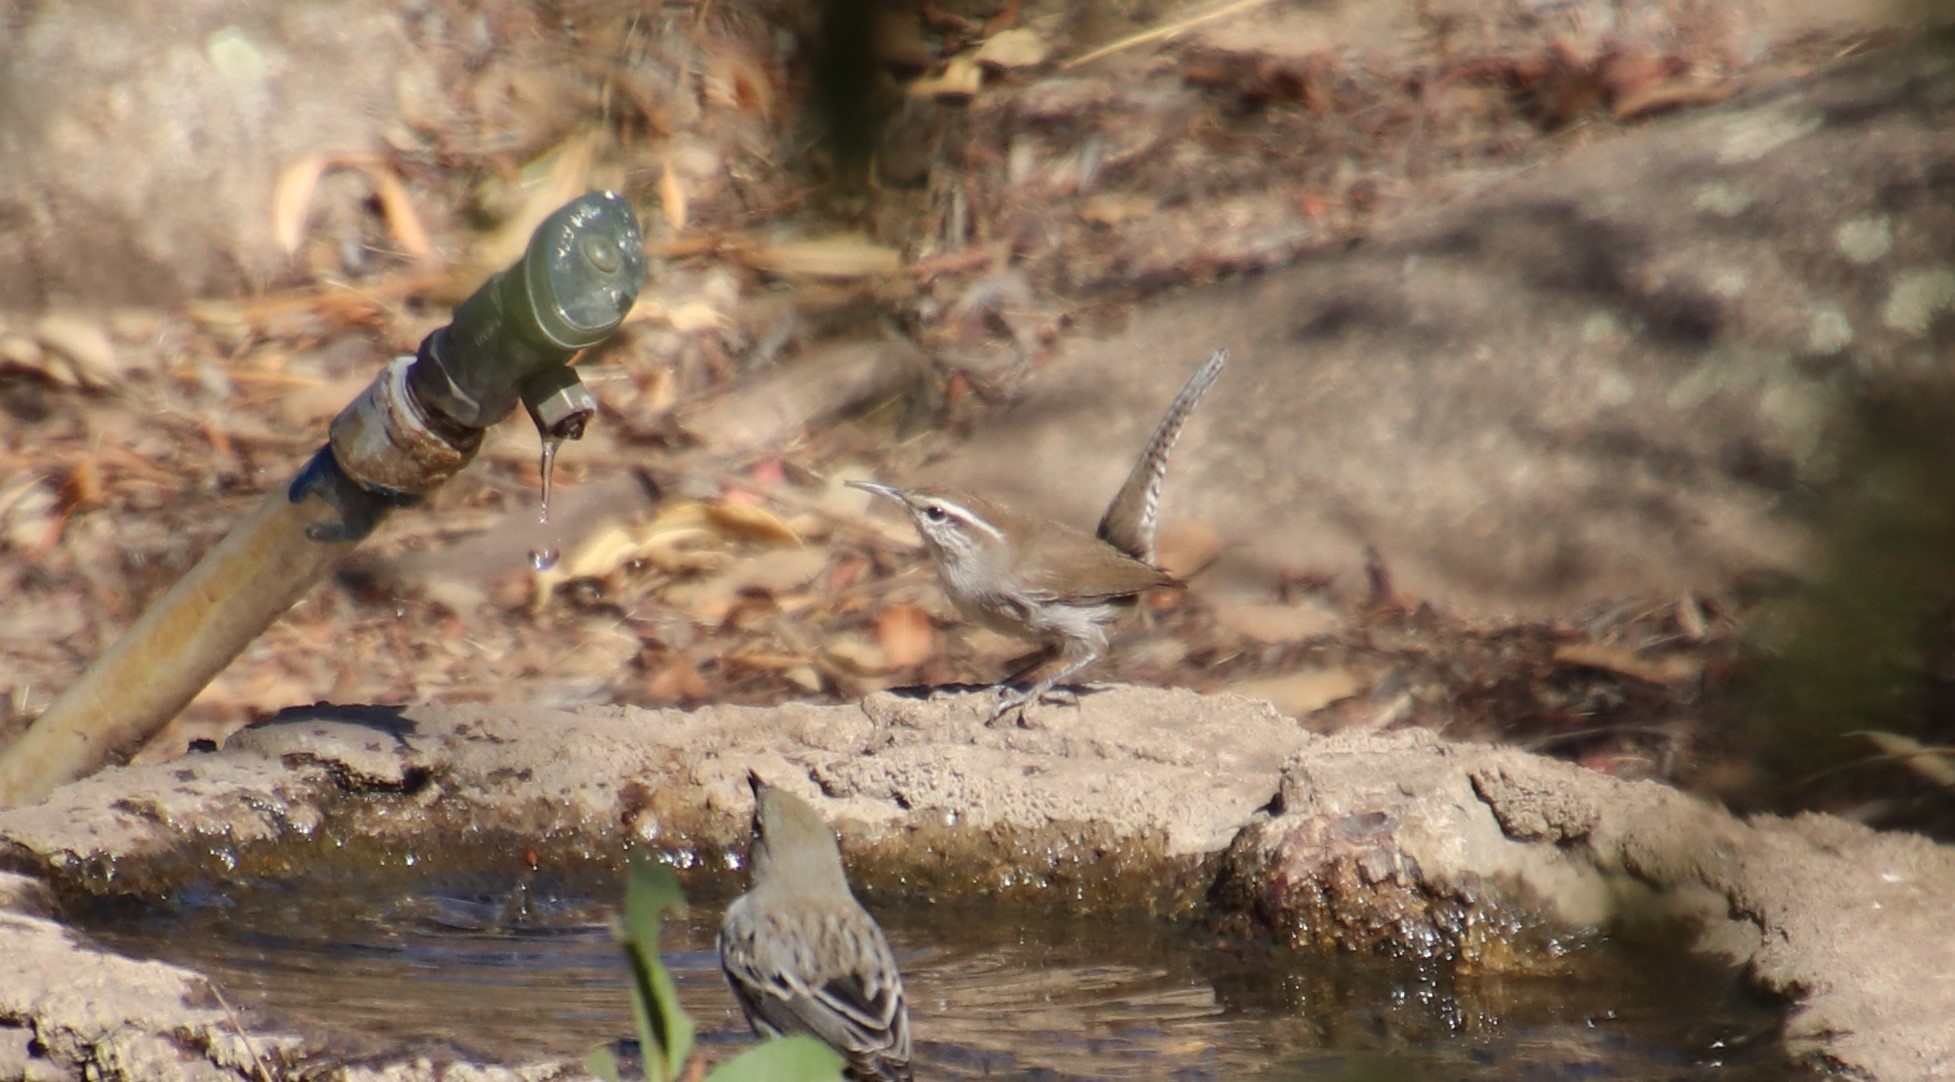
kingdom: Animalia
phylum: Chordata
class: Aves
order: Passeriformes
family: Troglodytidae
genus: Thryomanes
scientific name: Thryomanes bewickii
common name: Bewick's wren
